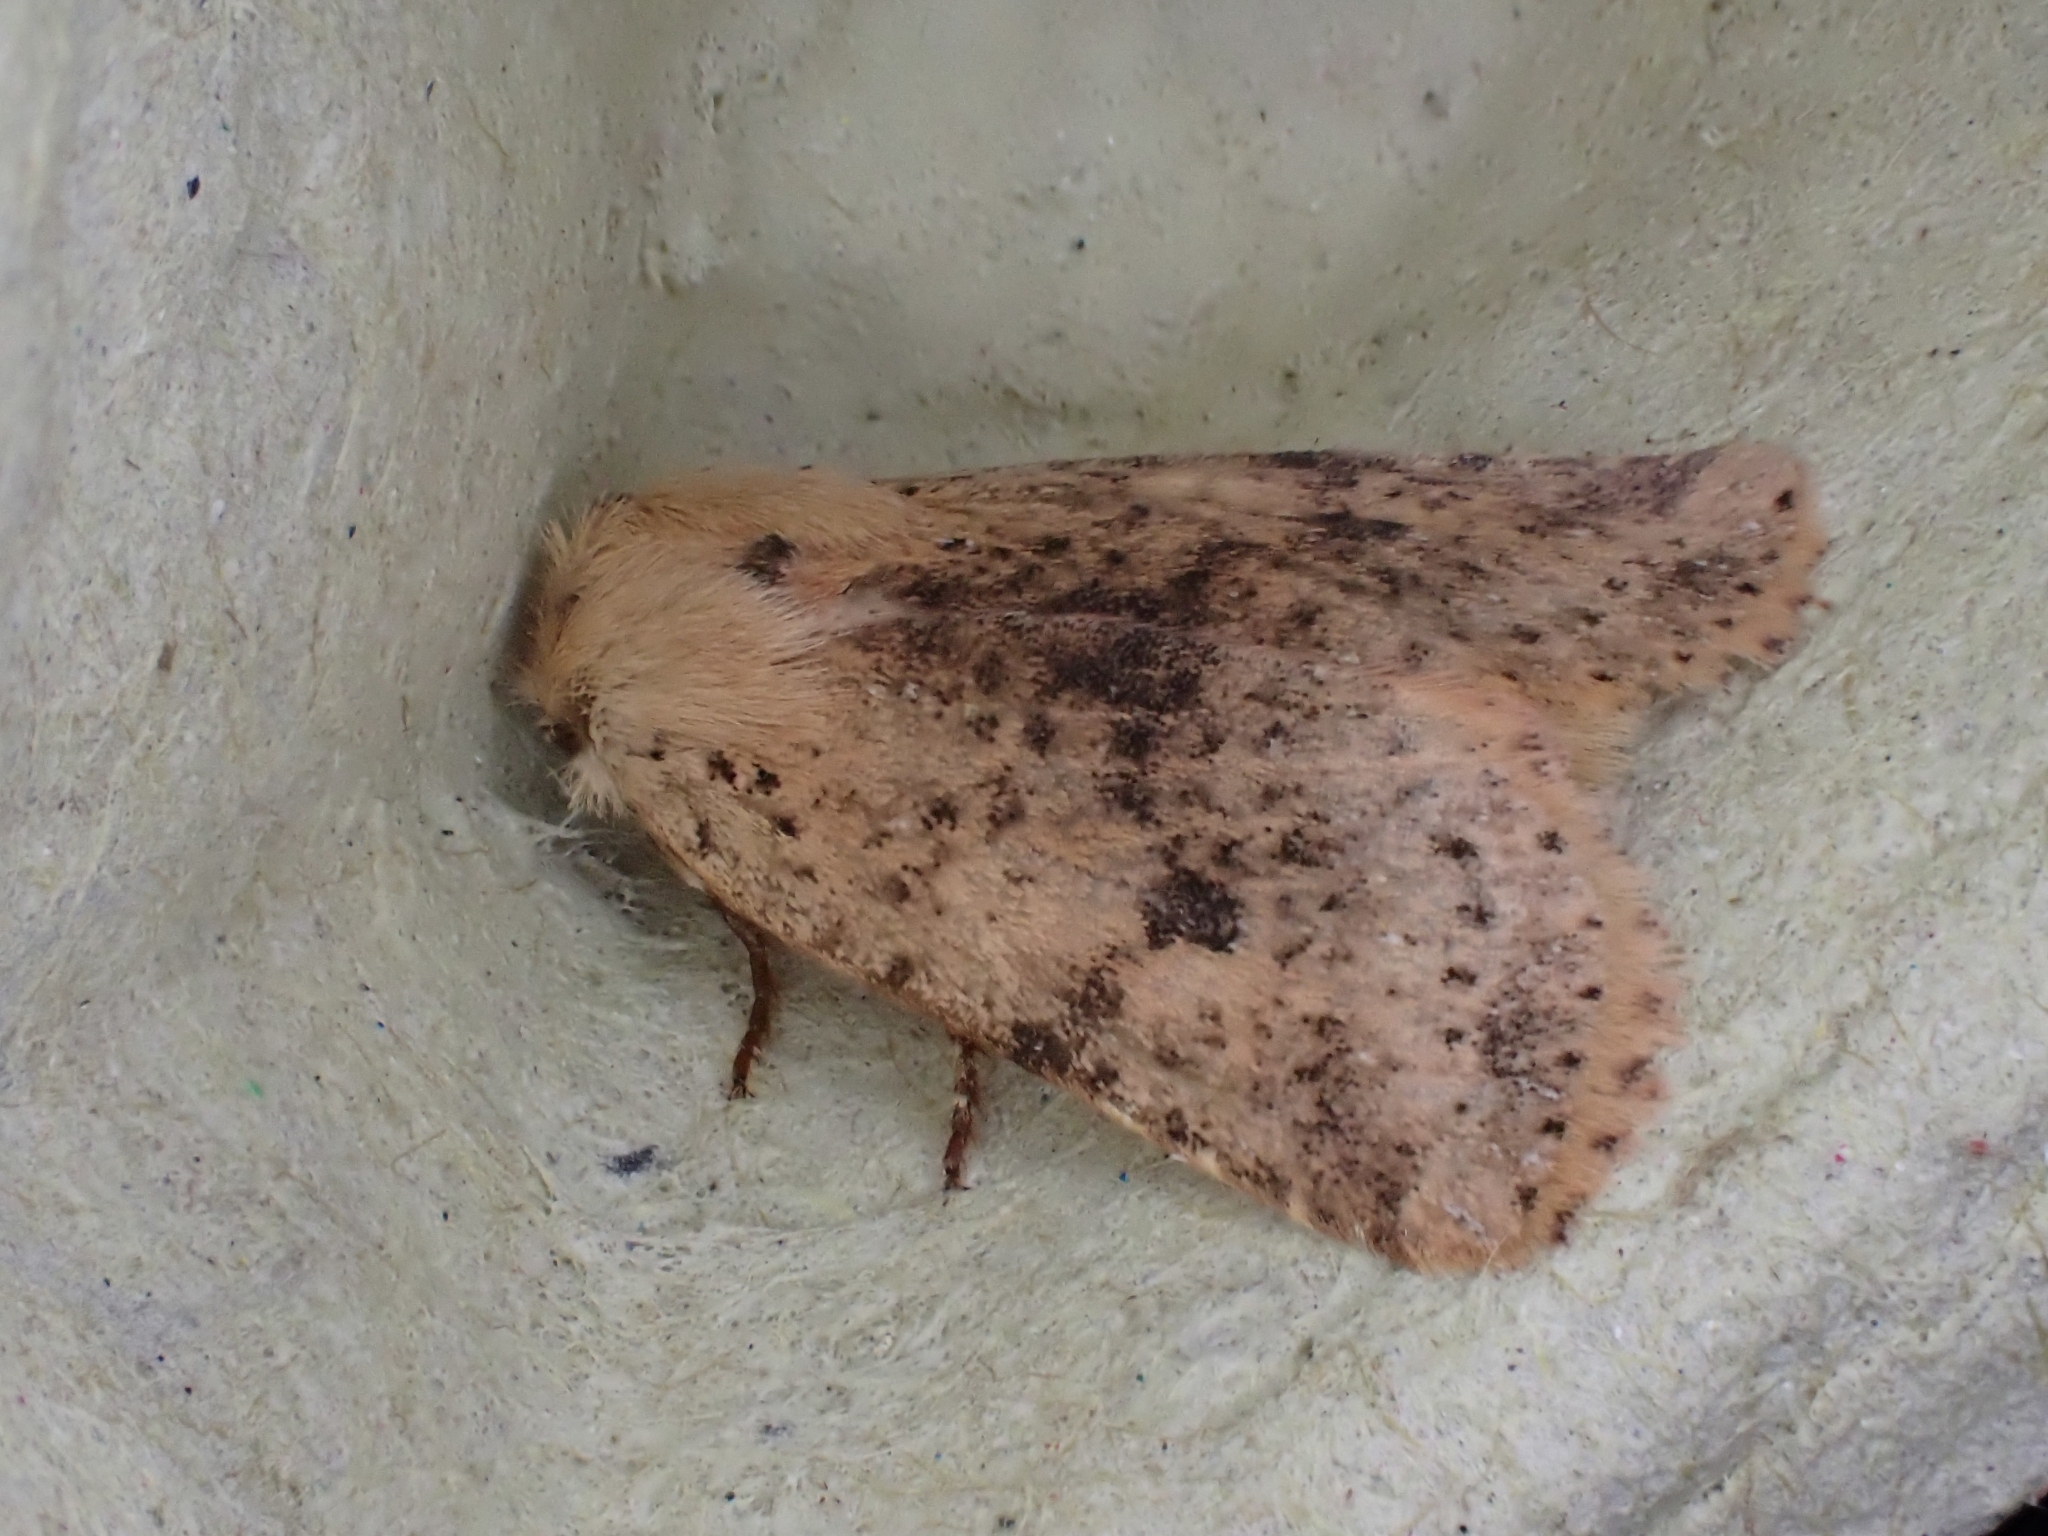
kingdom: Animalia
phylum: Arthropoda
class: Insecta
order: Lepidoptera
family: Noctuidae
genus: Conistra
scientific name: Conistra rubiginea
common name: Dotted chestnut
